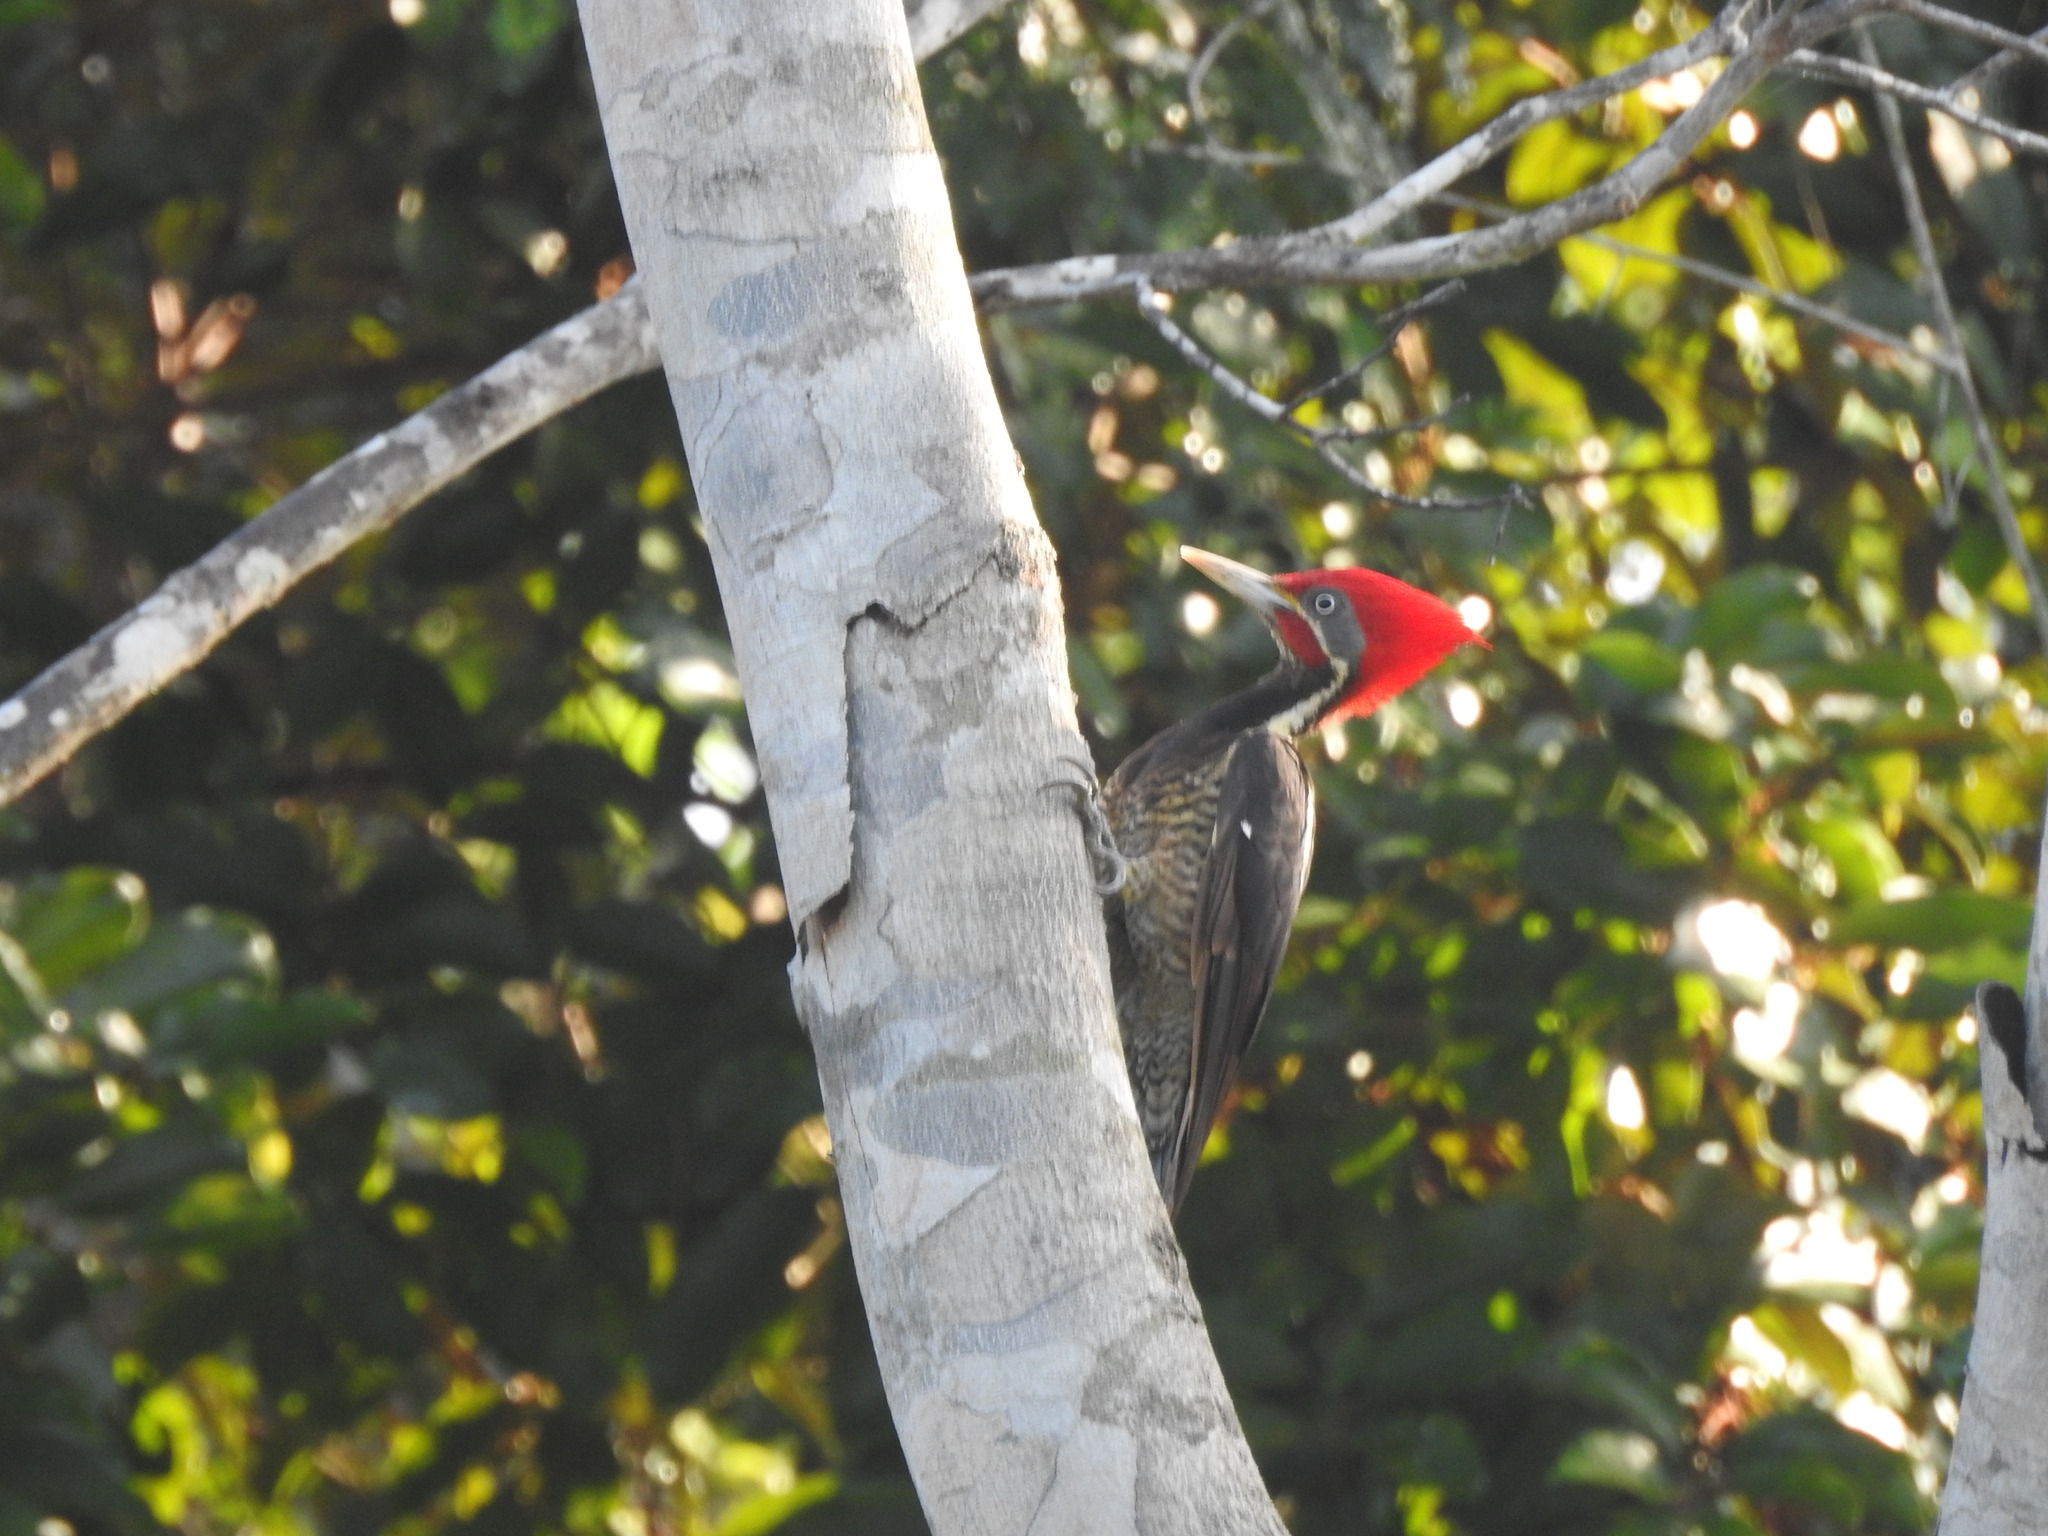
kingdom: Animalia
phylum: Chordata
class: Aves
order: Piciformes
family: Picidae
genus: Dryocopus
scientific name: Dryocopus lineatus
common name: Lineated woodpecker
